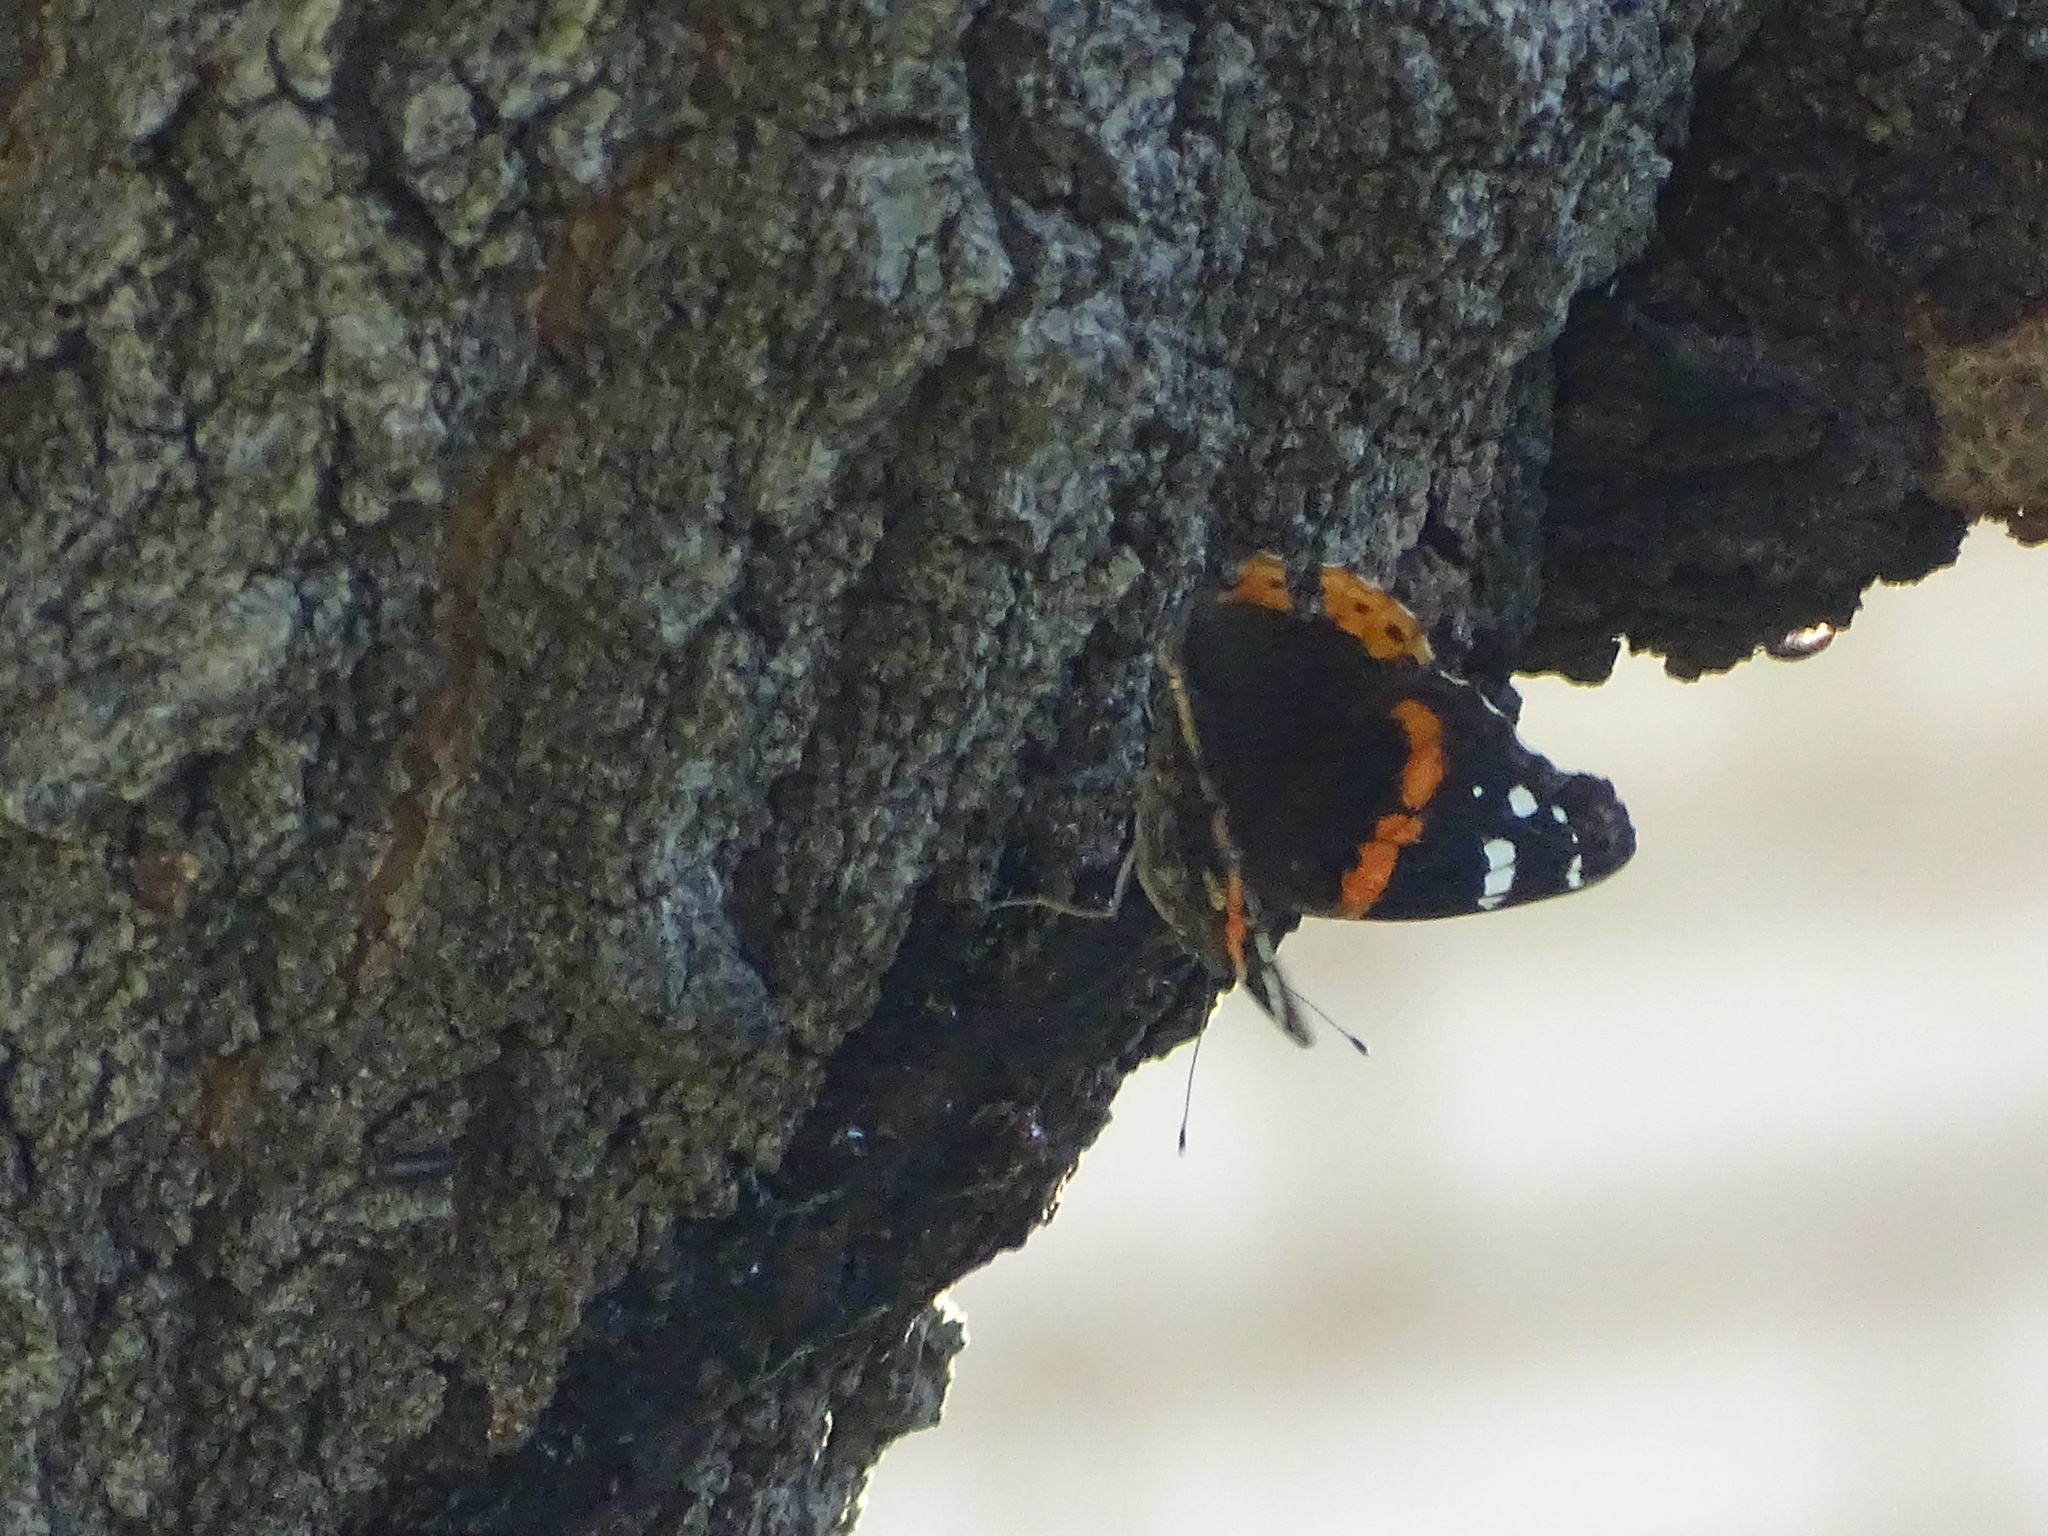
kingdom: Animalia
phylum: Arthropoda
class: Insecta
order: Lepidoptera
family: Nymphalidae
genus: Vanessa
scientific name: Vanessa atalanta
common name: Red admiral
